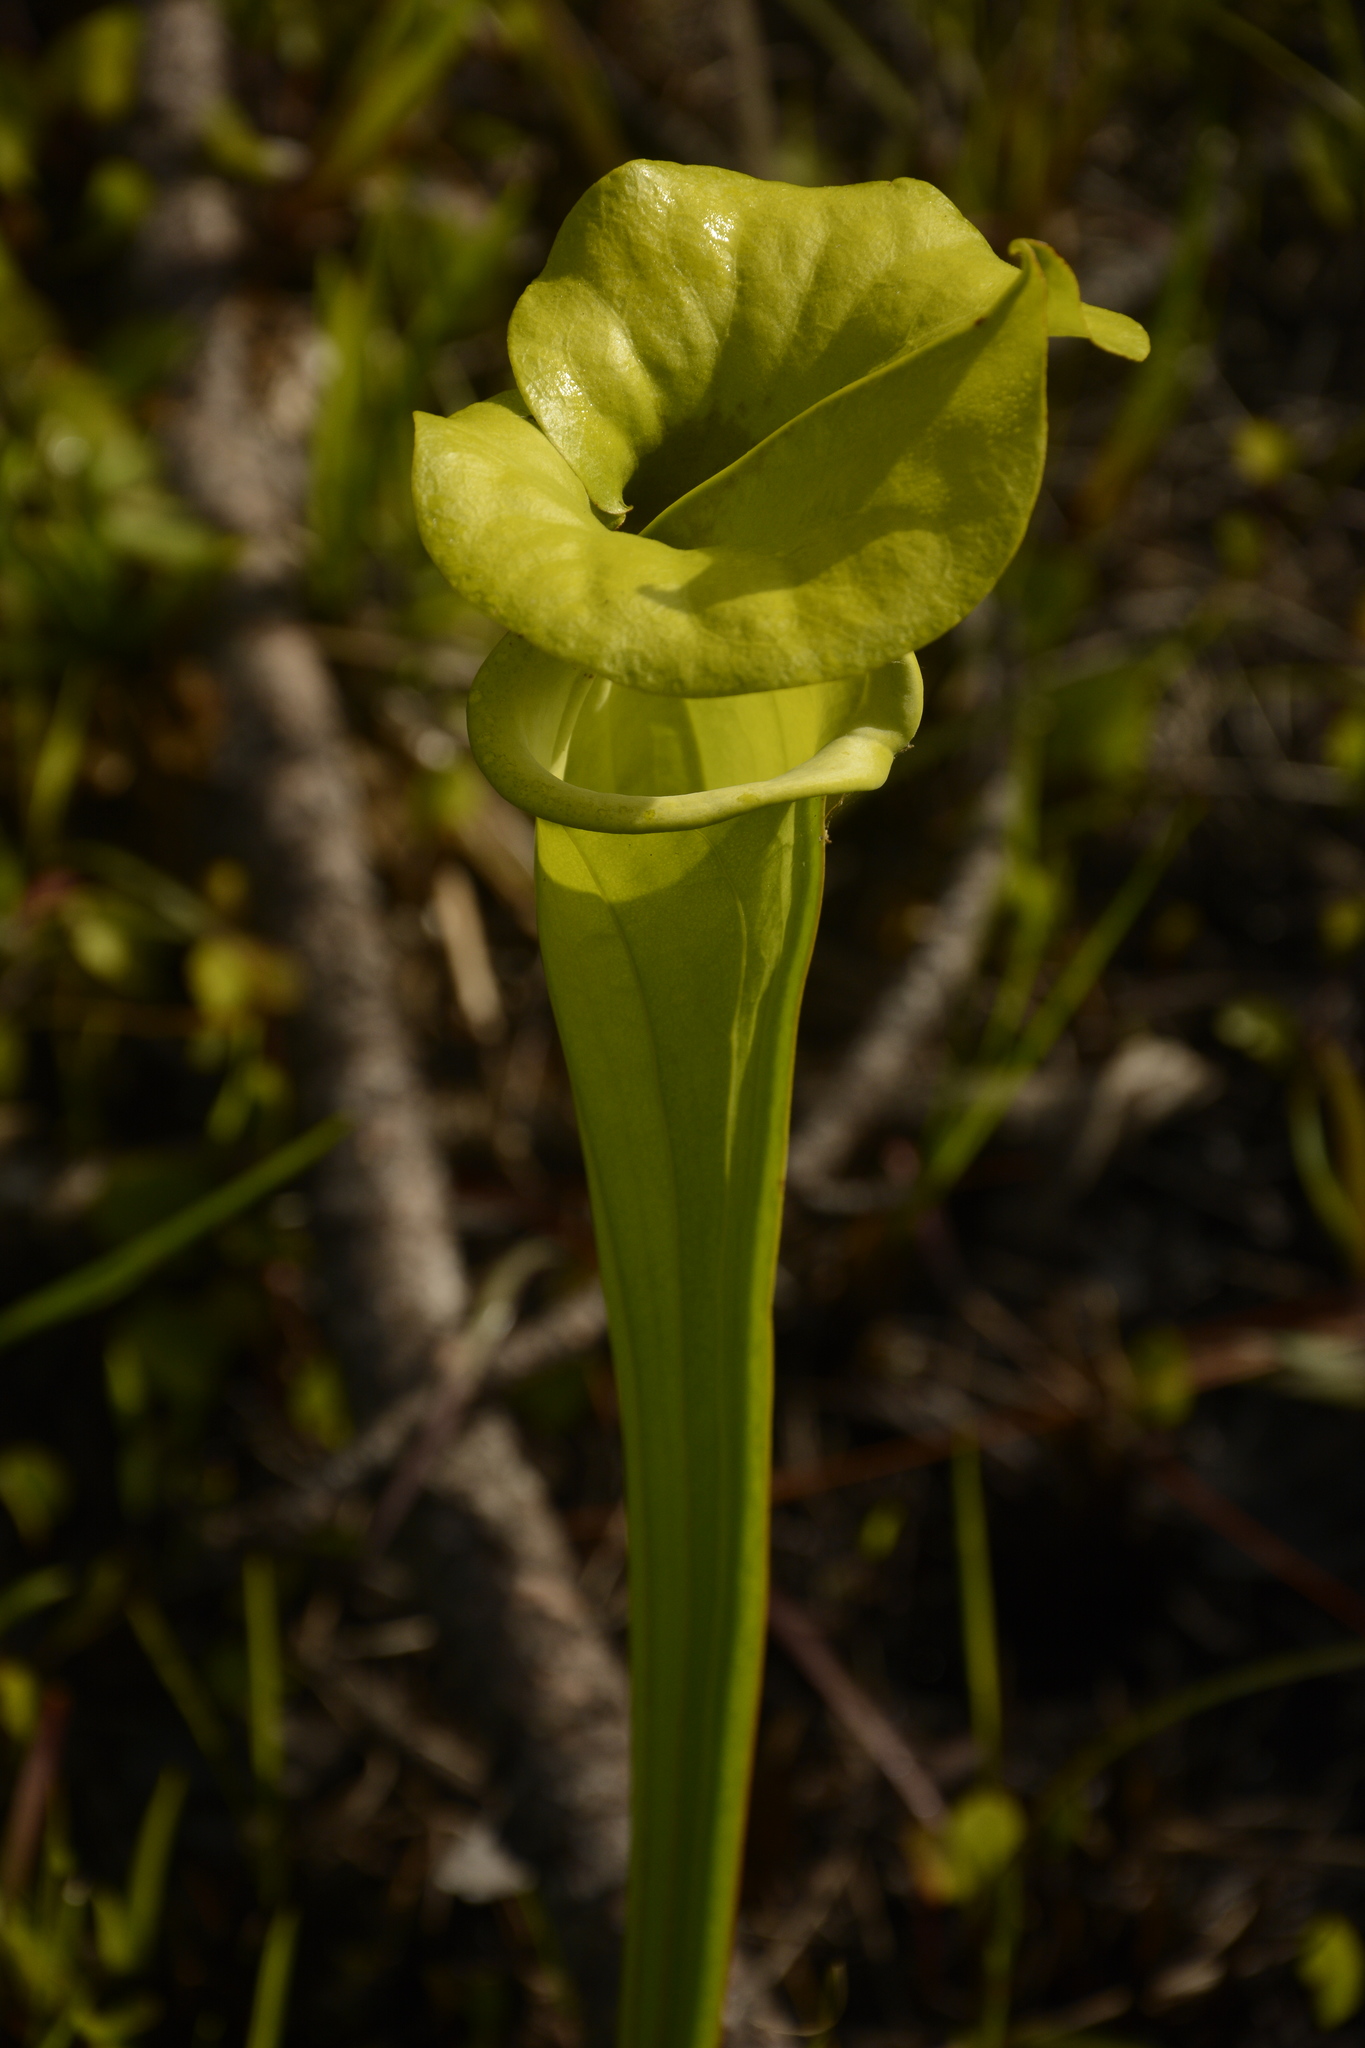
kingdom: Plantae
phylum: Tracheophyta
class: Magnoliopsida
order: Ericales
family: Sarraceniaceae
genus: Sarracenia
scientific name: Sarracenia flava
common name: Trumpets
